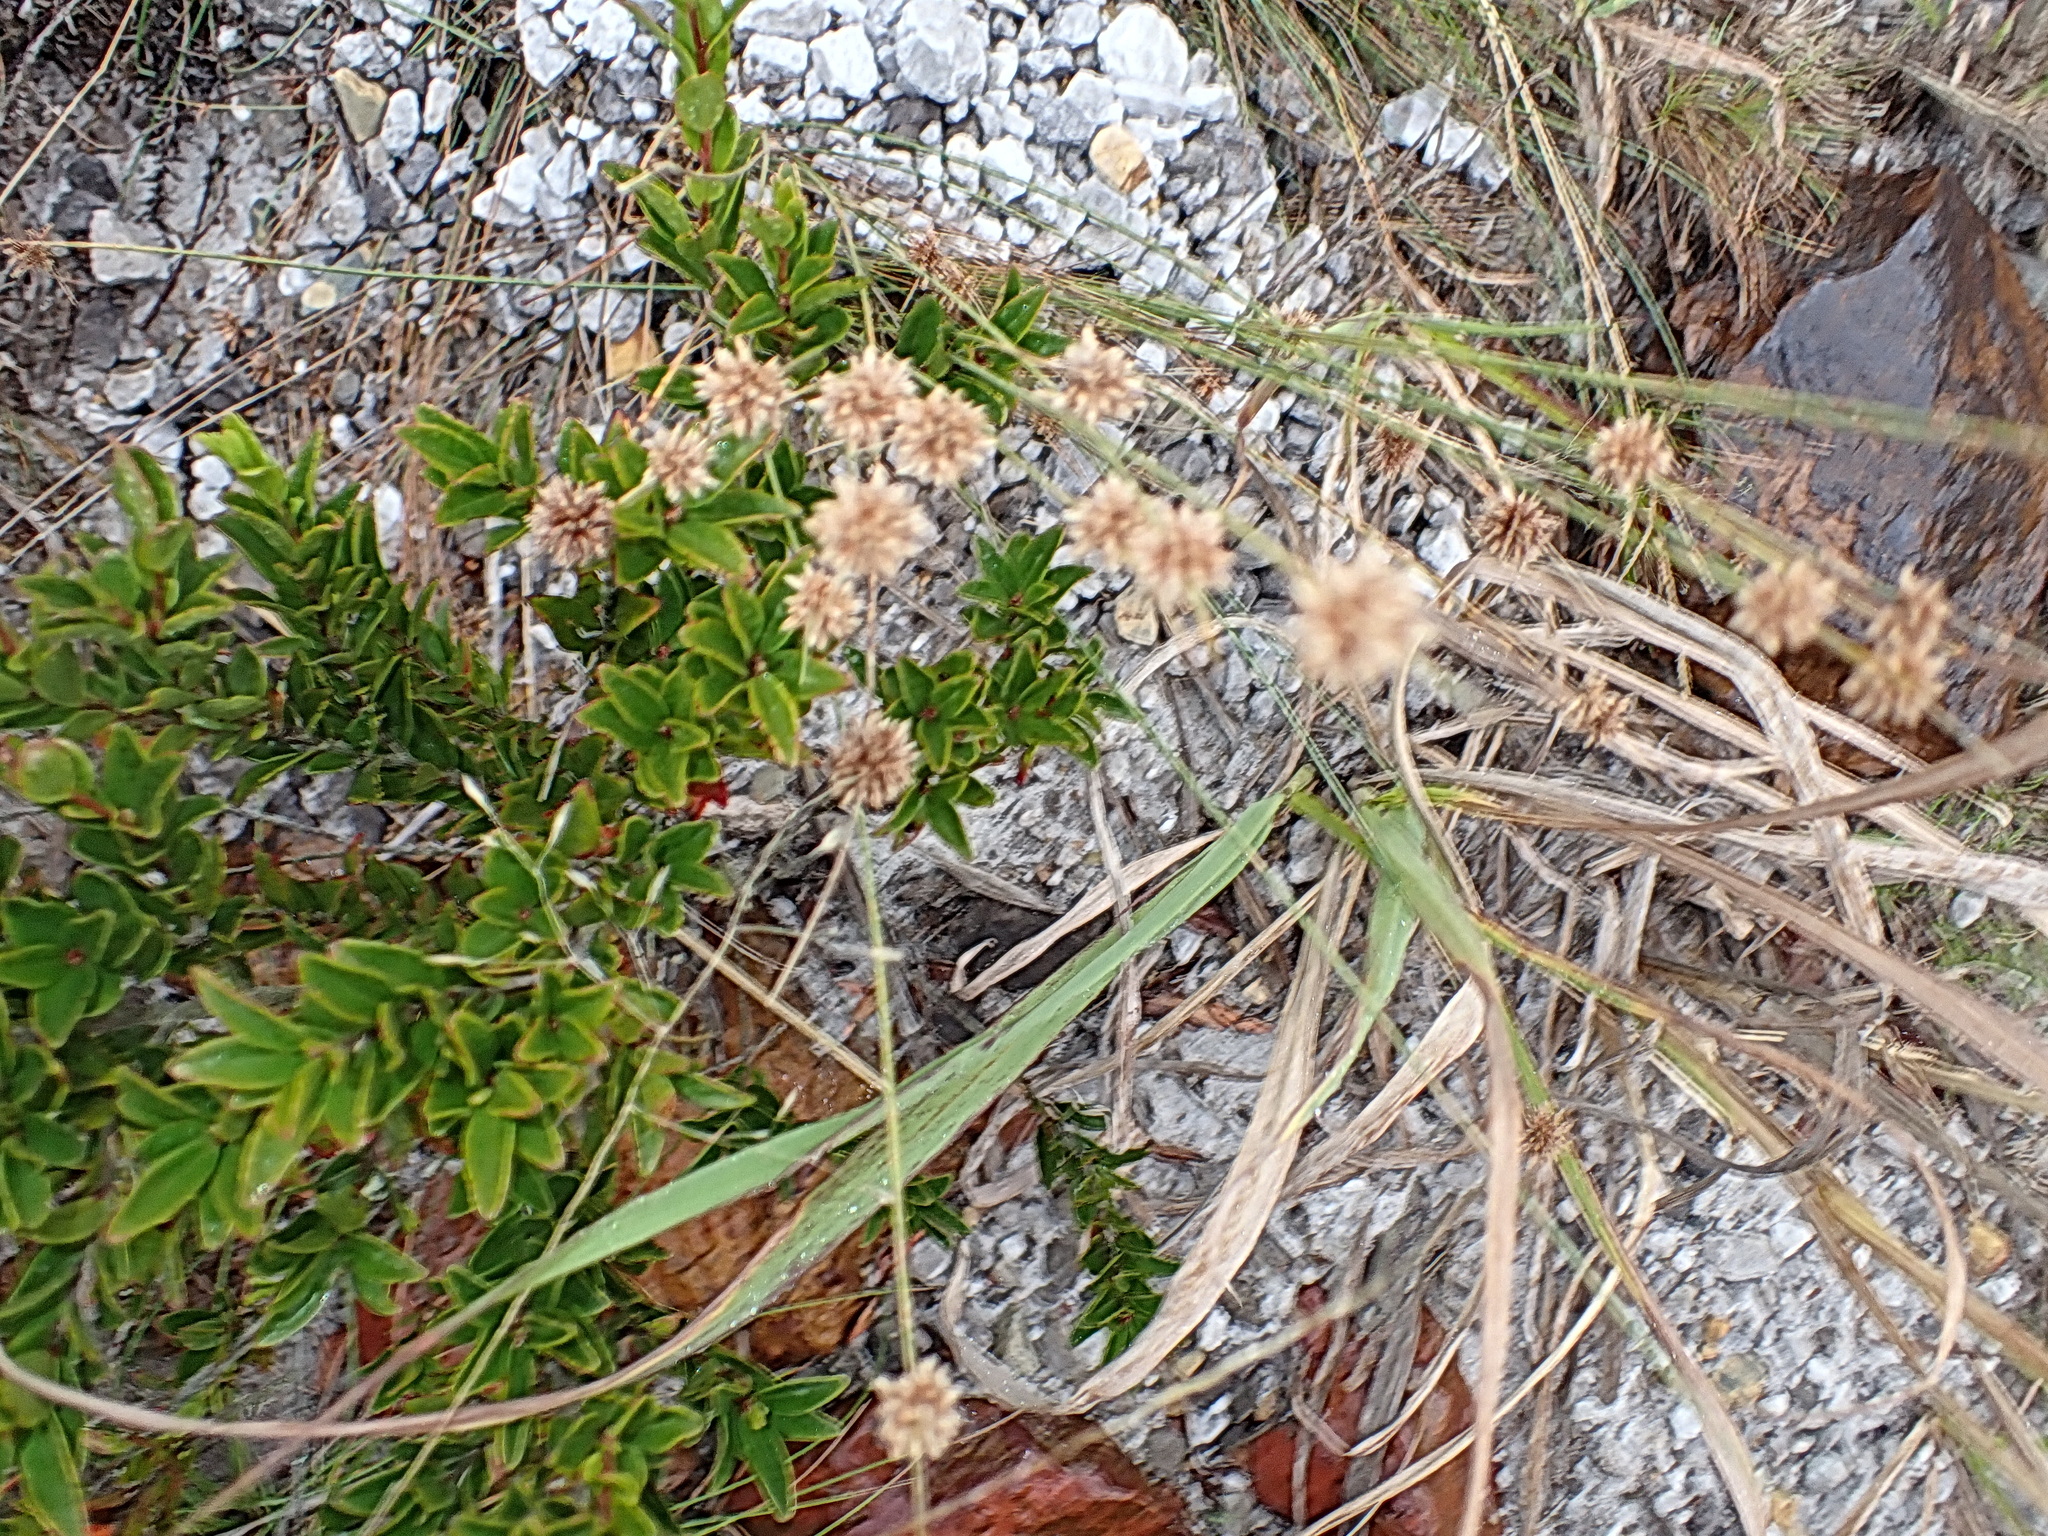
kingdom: Plantae
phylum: Tracheophyta
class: Liliopsida
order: Poales
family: Cyperaceae
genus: Ficinia
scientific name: Ficinia bulbosa
